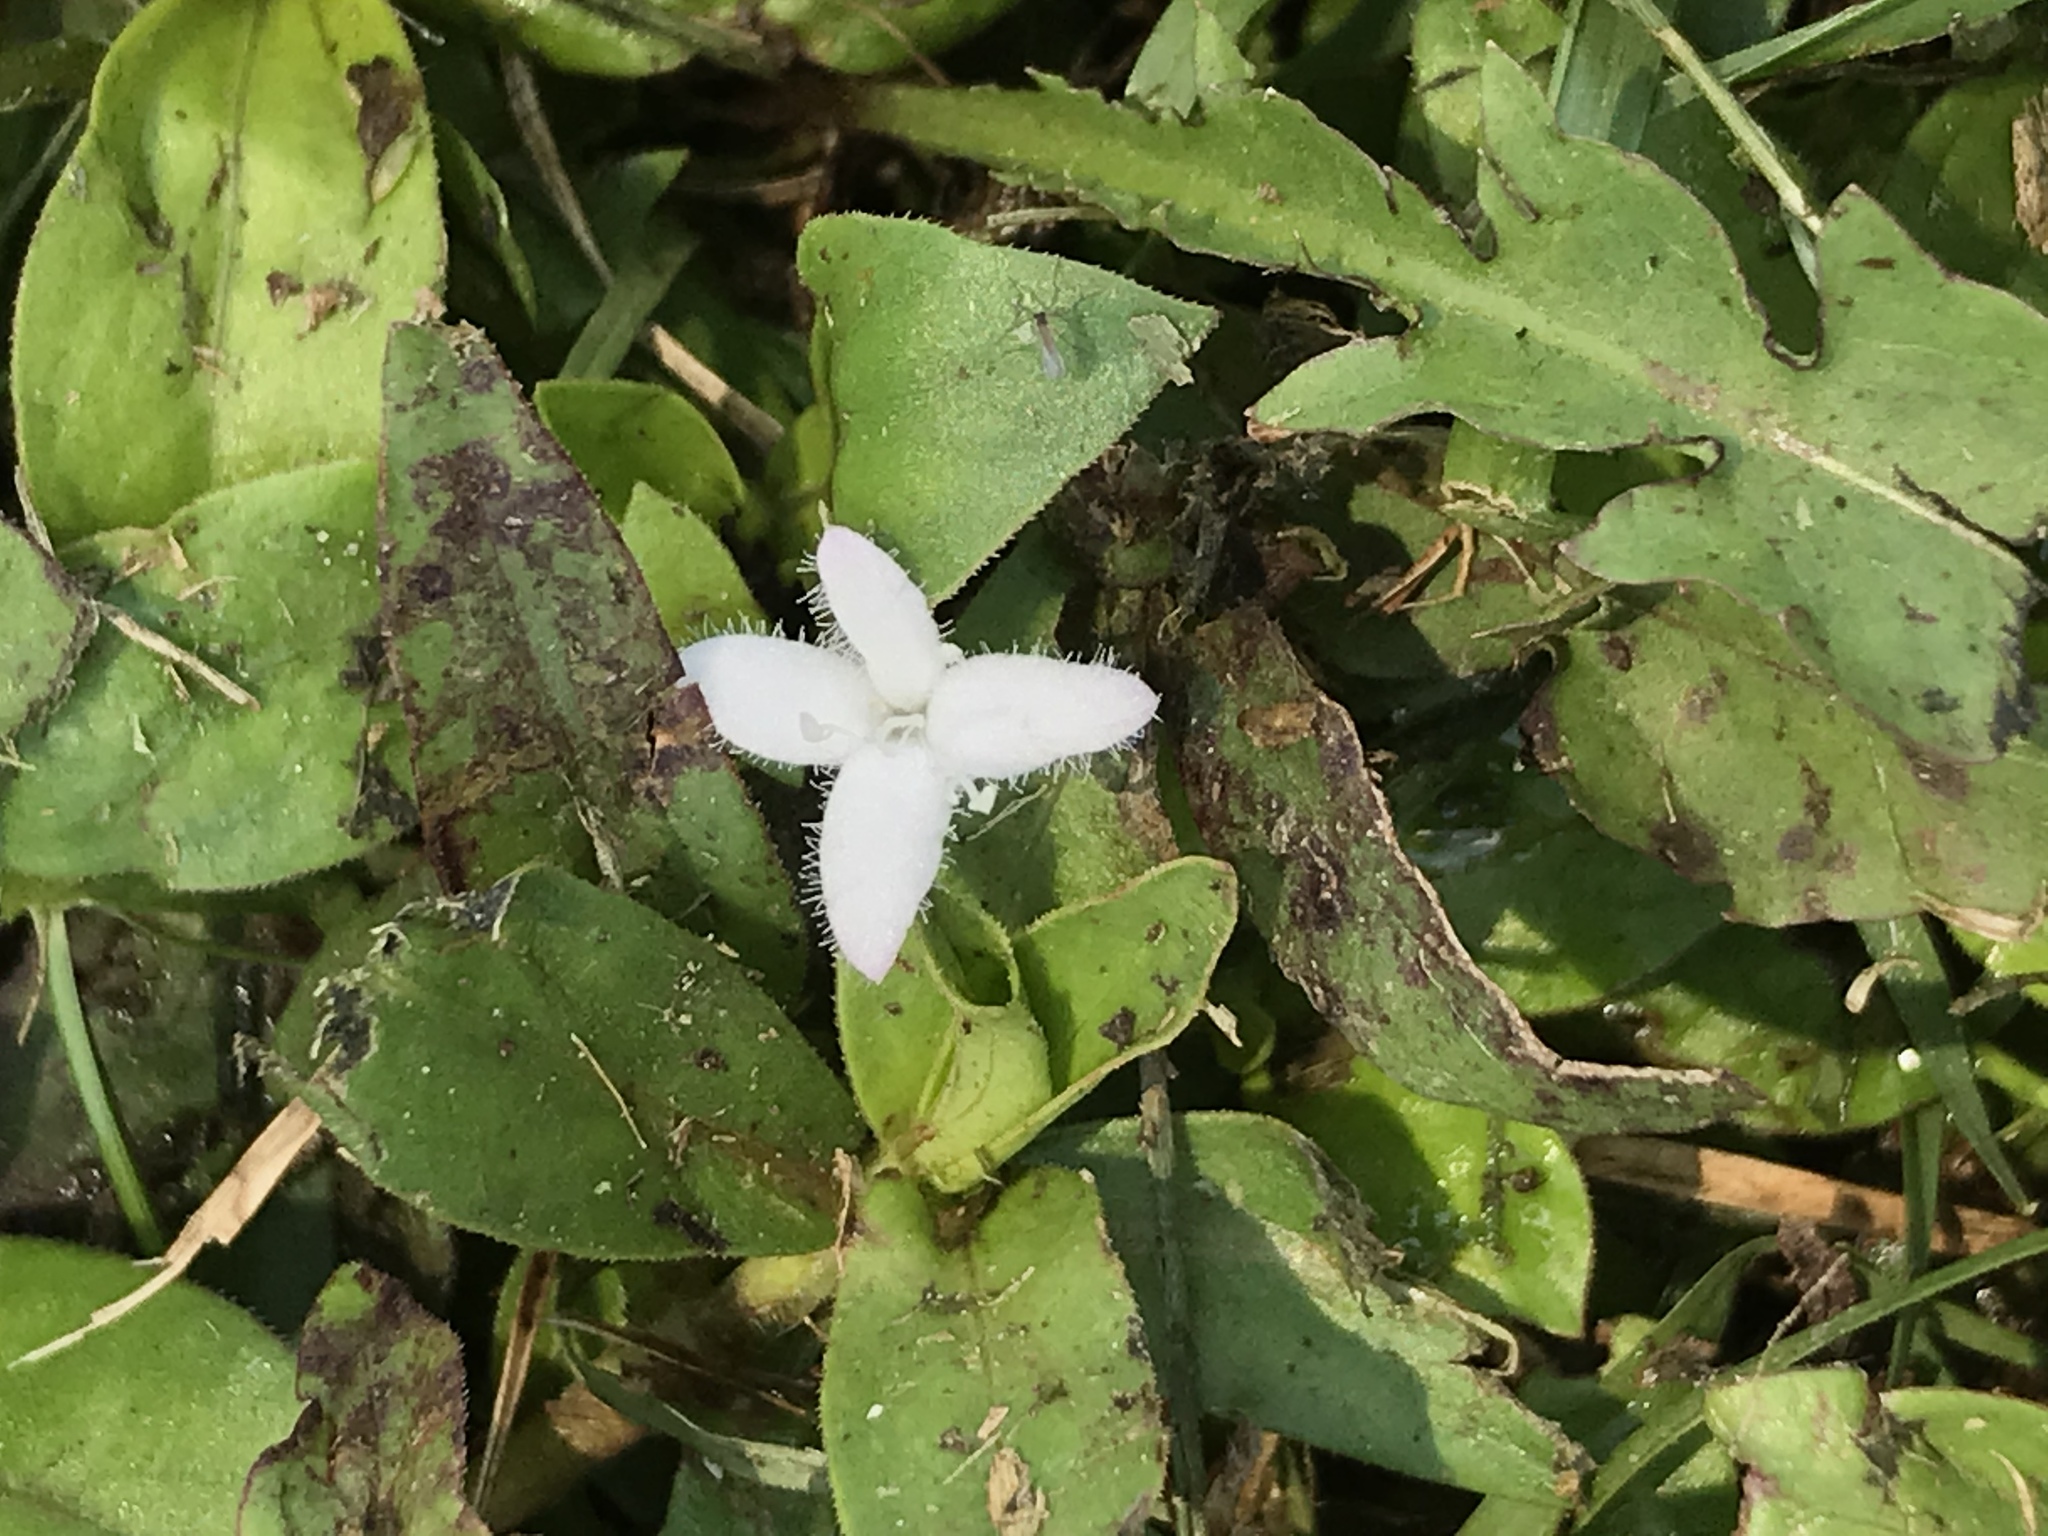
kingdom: Plantae
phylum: Tracheophyta
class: Magnoliopsida
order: Gentianales
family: Rubiaceae
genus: Diodia
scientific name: Diodia virginiana
